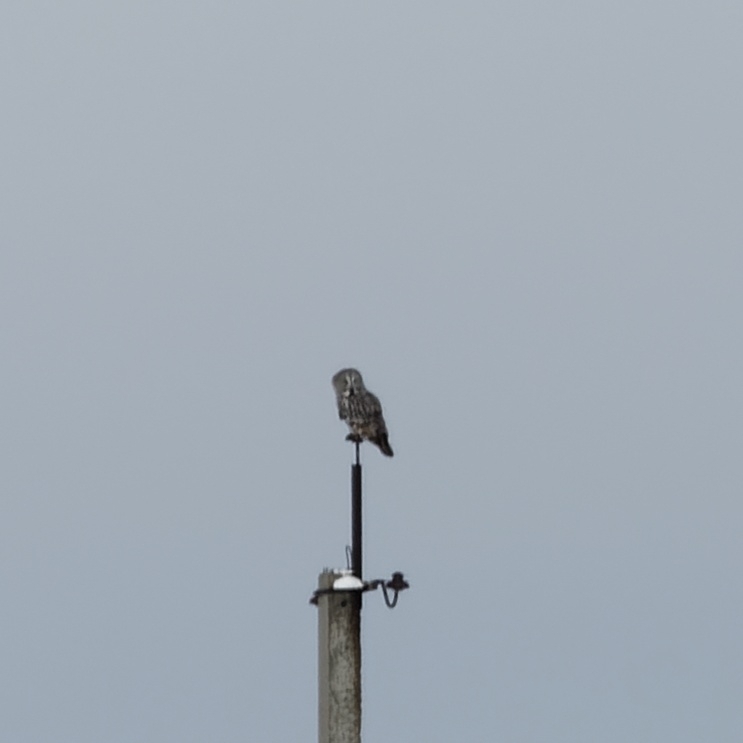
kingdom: Animalia
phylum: Chordata
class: Aves
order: Strigiformes
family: Strigidae
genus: Strix
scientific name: Strix nebulosa
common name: Great grey owl
